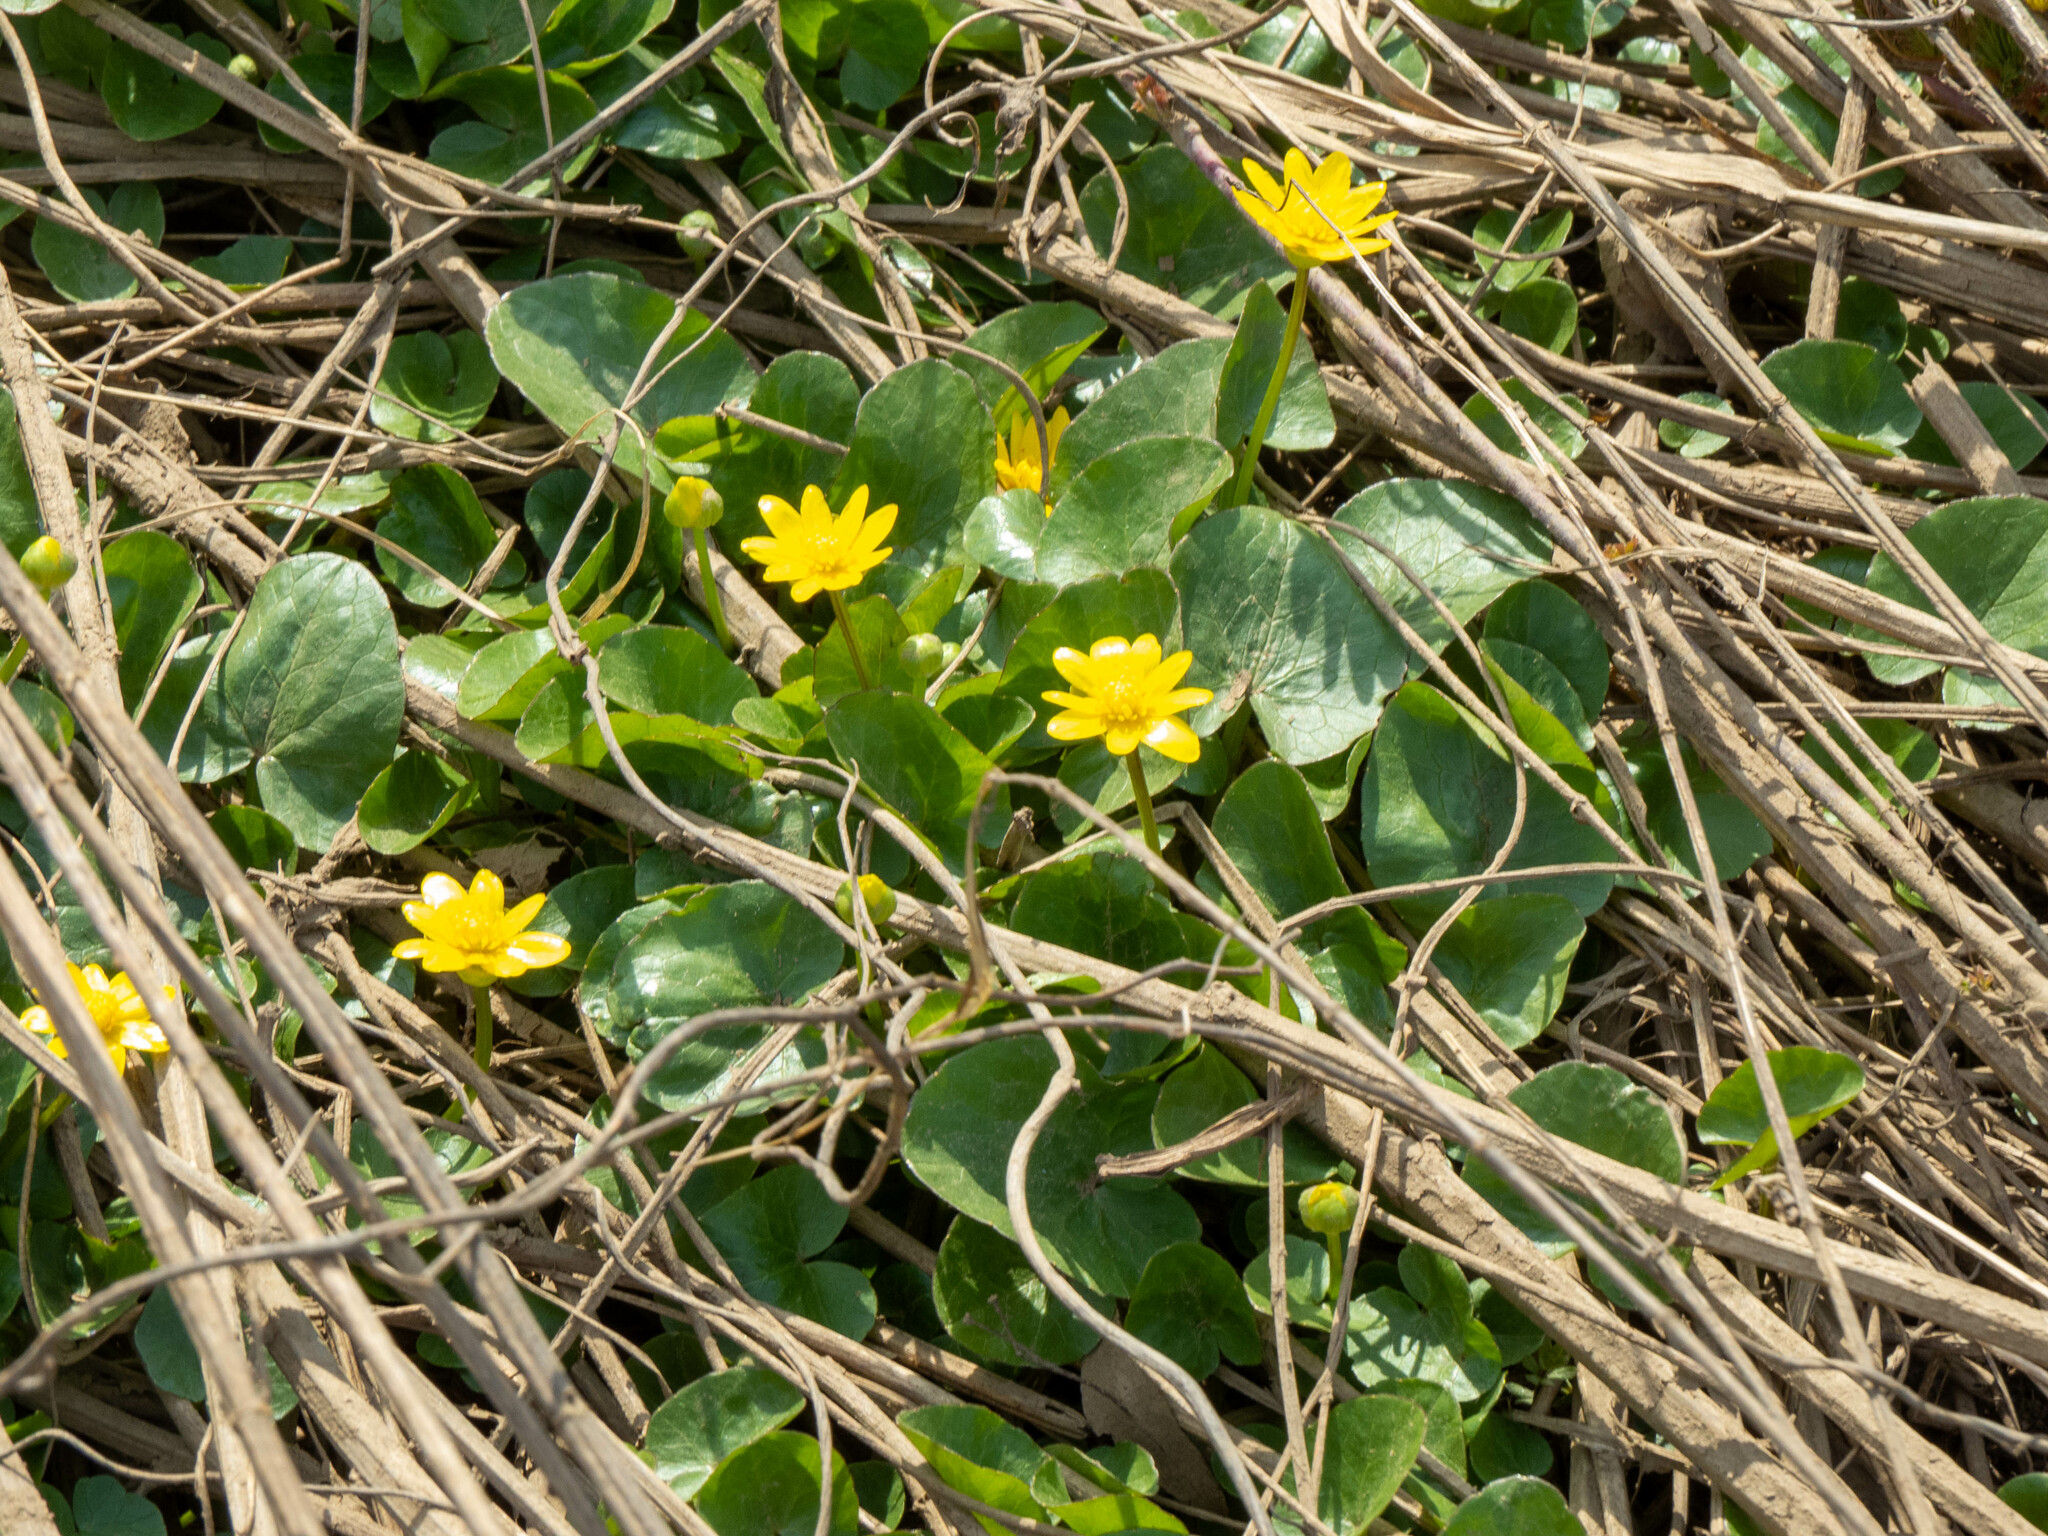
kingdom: Plantae
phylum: Tracheophyta
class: Magnoliopsida
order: Ranunculales
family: Ranunculaceae
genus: Ficaria
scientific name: Ficaria verna
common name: Lesser celandine
